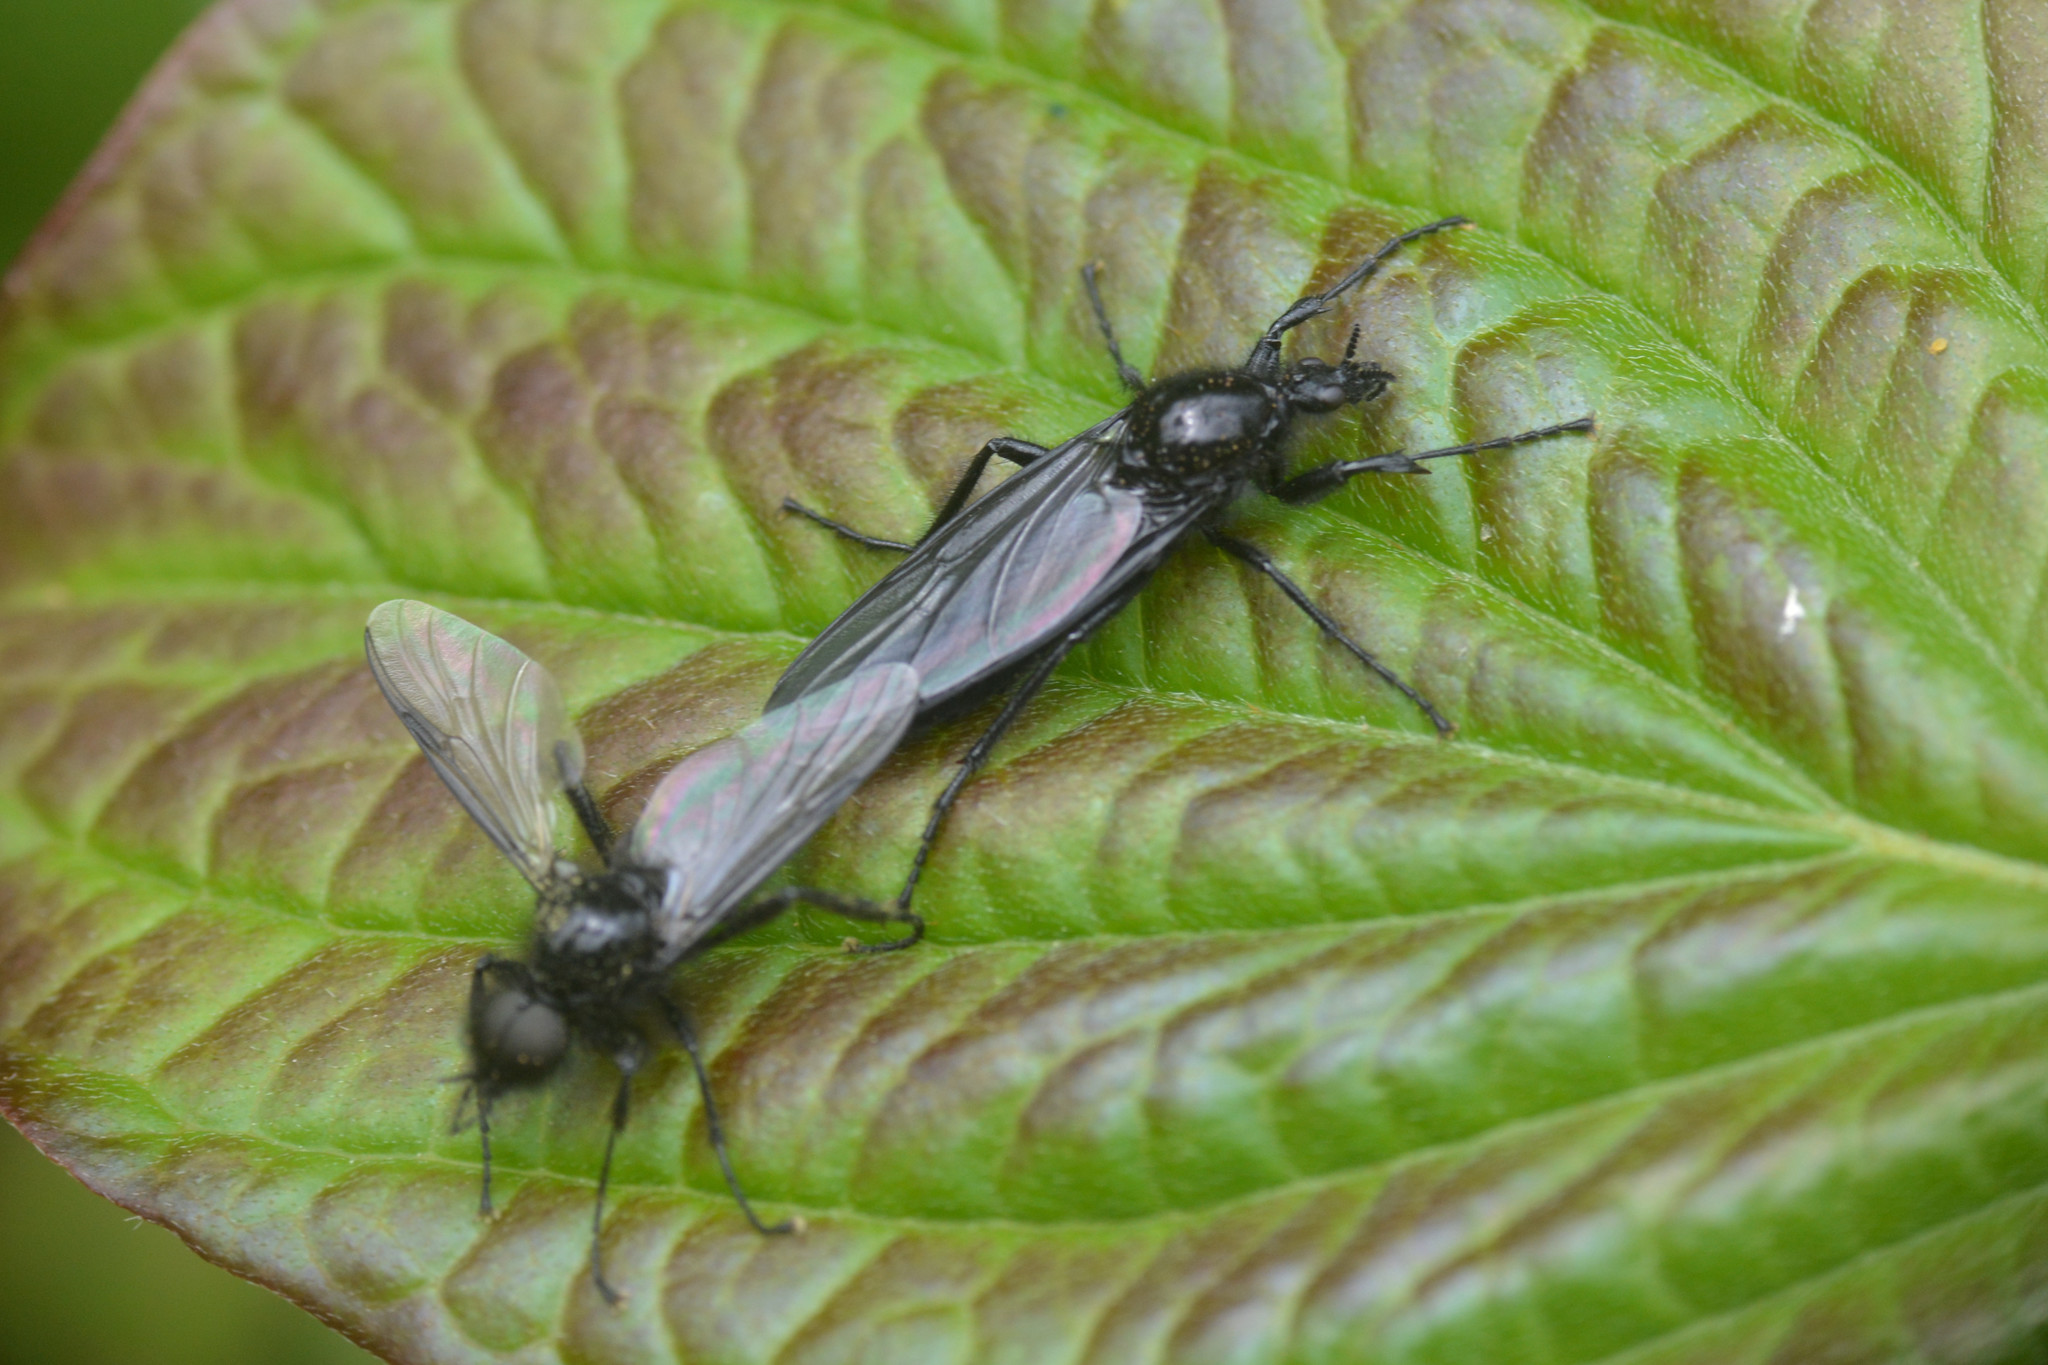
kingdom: Animalia
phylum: Arthropoda
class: Insecta
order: Diptera
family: Bibionidae
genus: Bibio
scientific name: Bibio marci
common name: St marks fly
